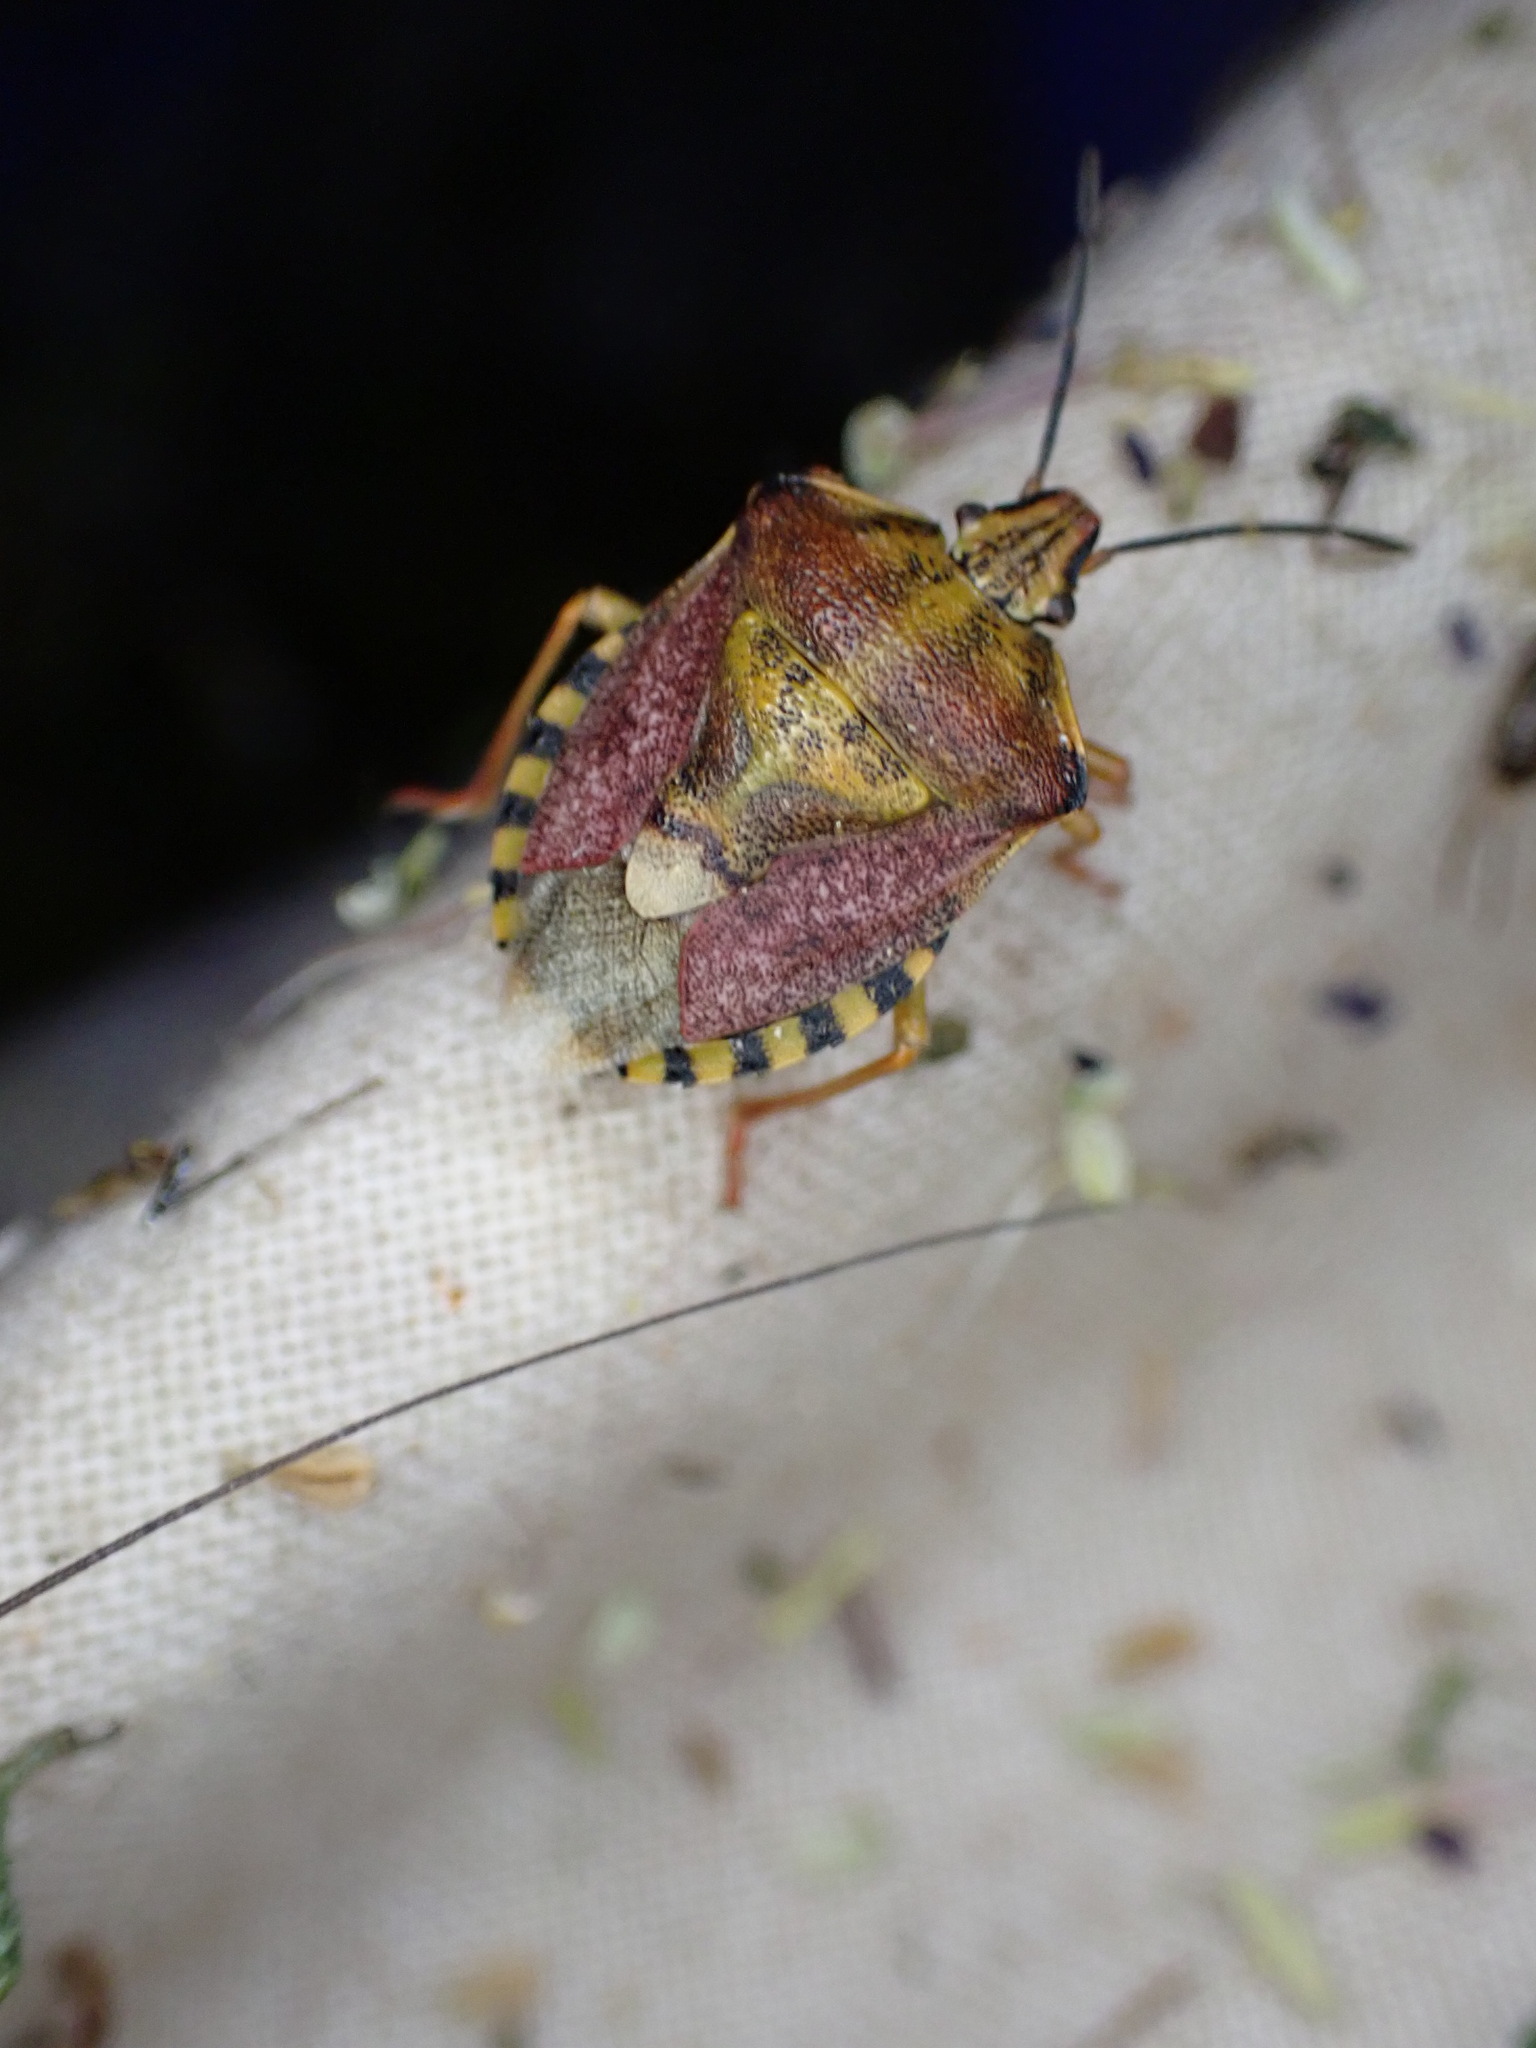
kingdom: Animalia
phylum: Arthropoda
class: Insecta
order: Hemiptera
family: Pentatomidae
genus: Carpocoris
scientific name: Carpocoris purpureipennis
